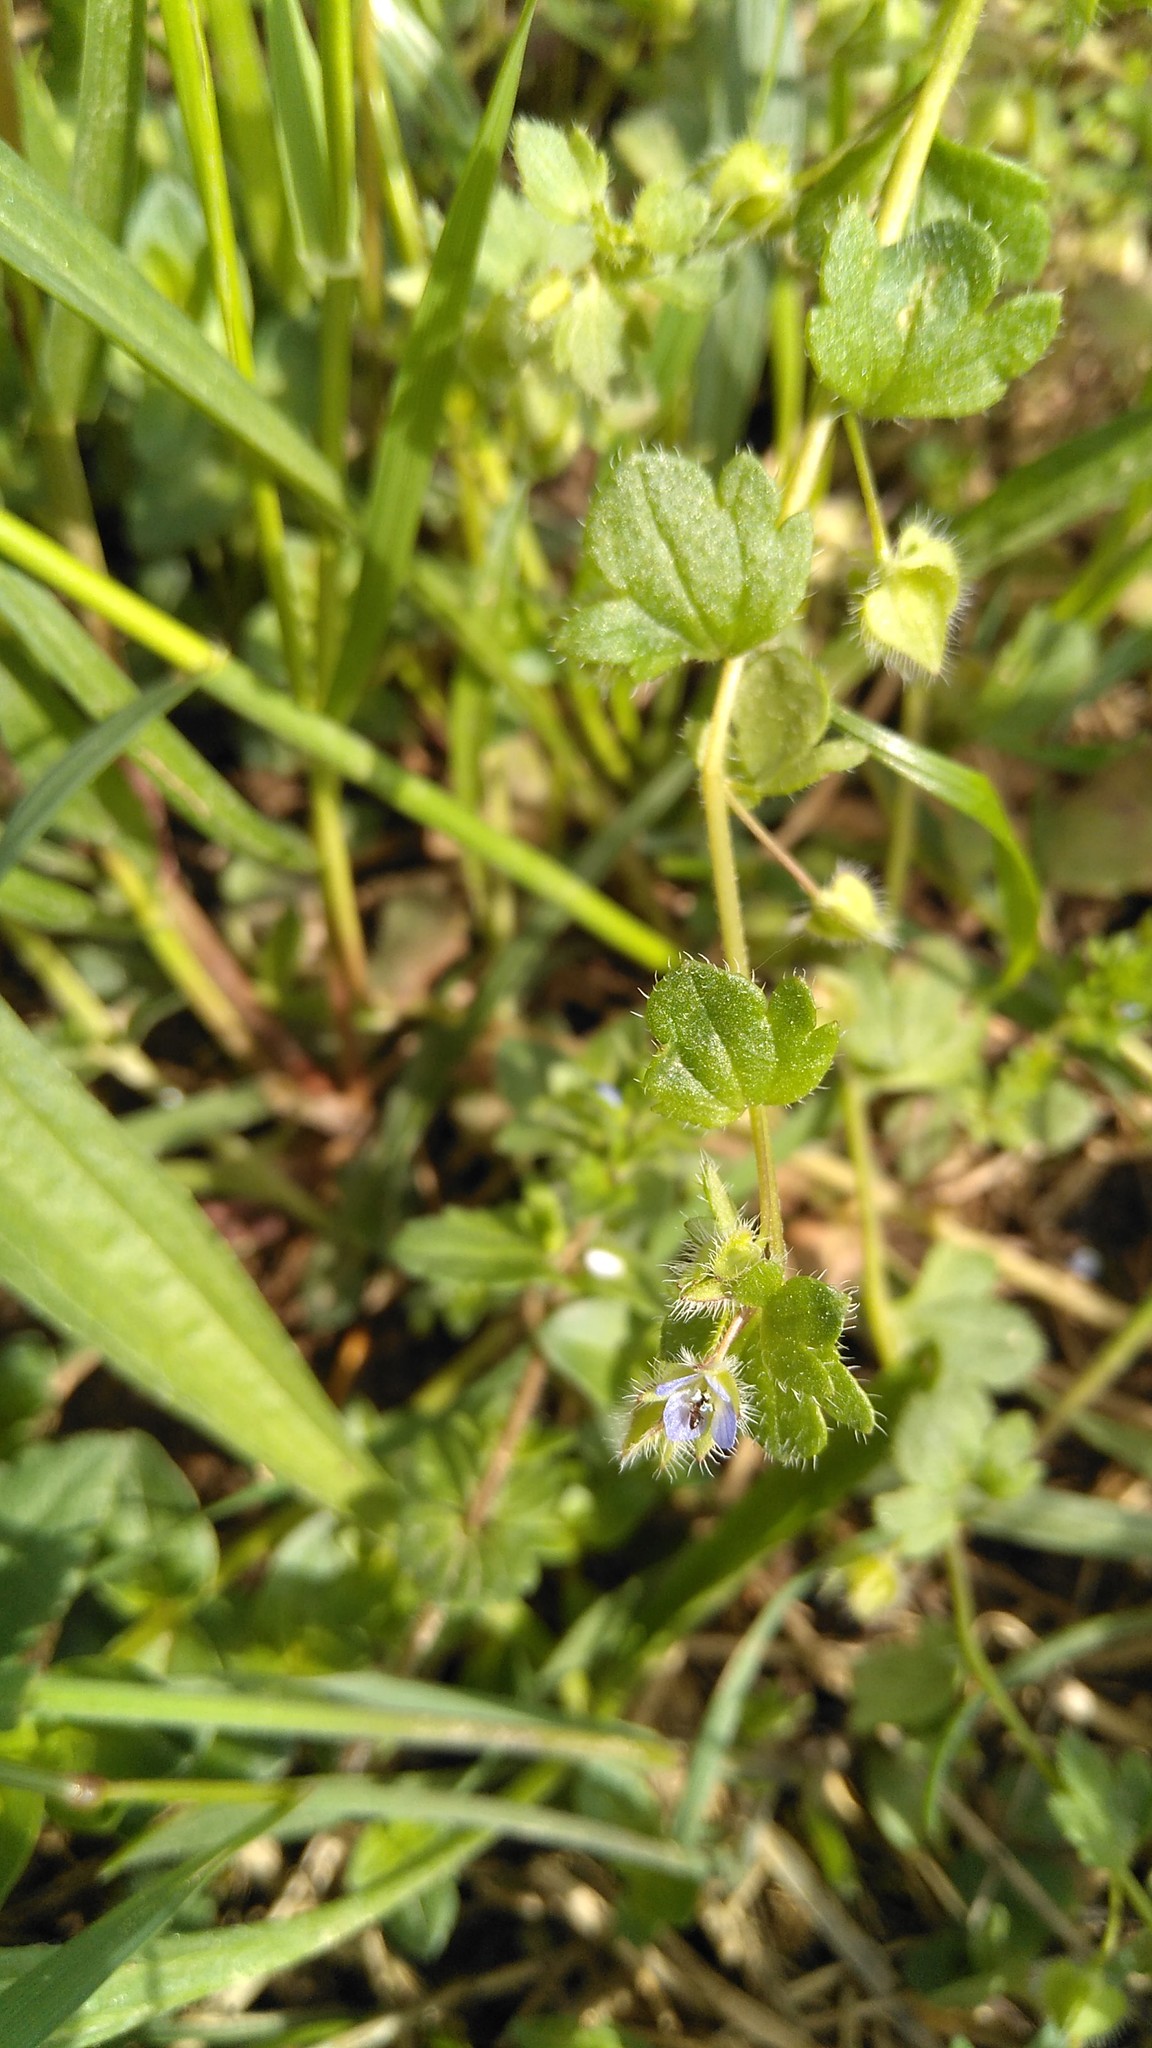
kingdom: Plantae
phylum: Tracheophyta
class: Magnoliopsida
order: Lamiales
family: Plantaginaceae
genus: Veronica
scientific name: Veronica hederifolia
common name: Ivy-leaved speedwell
